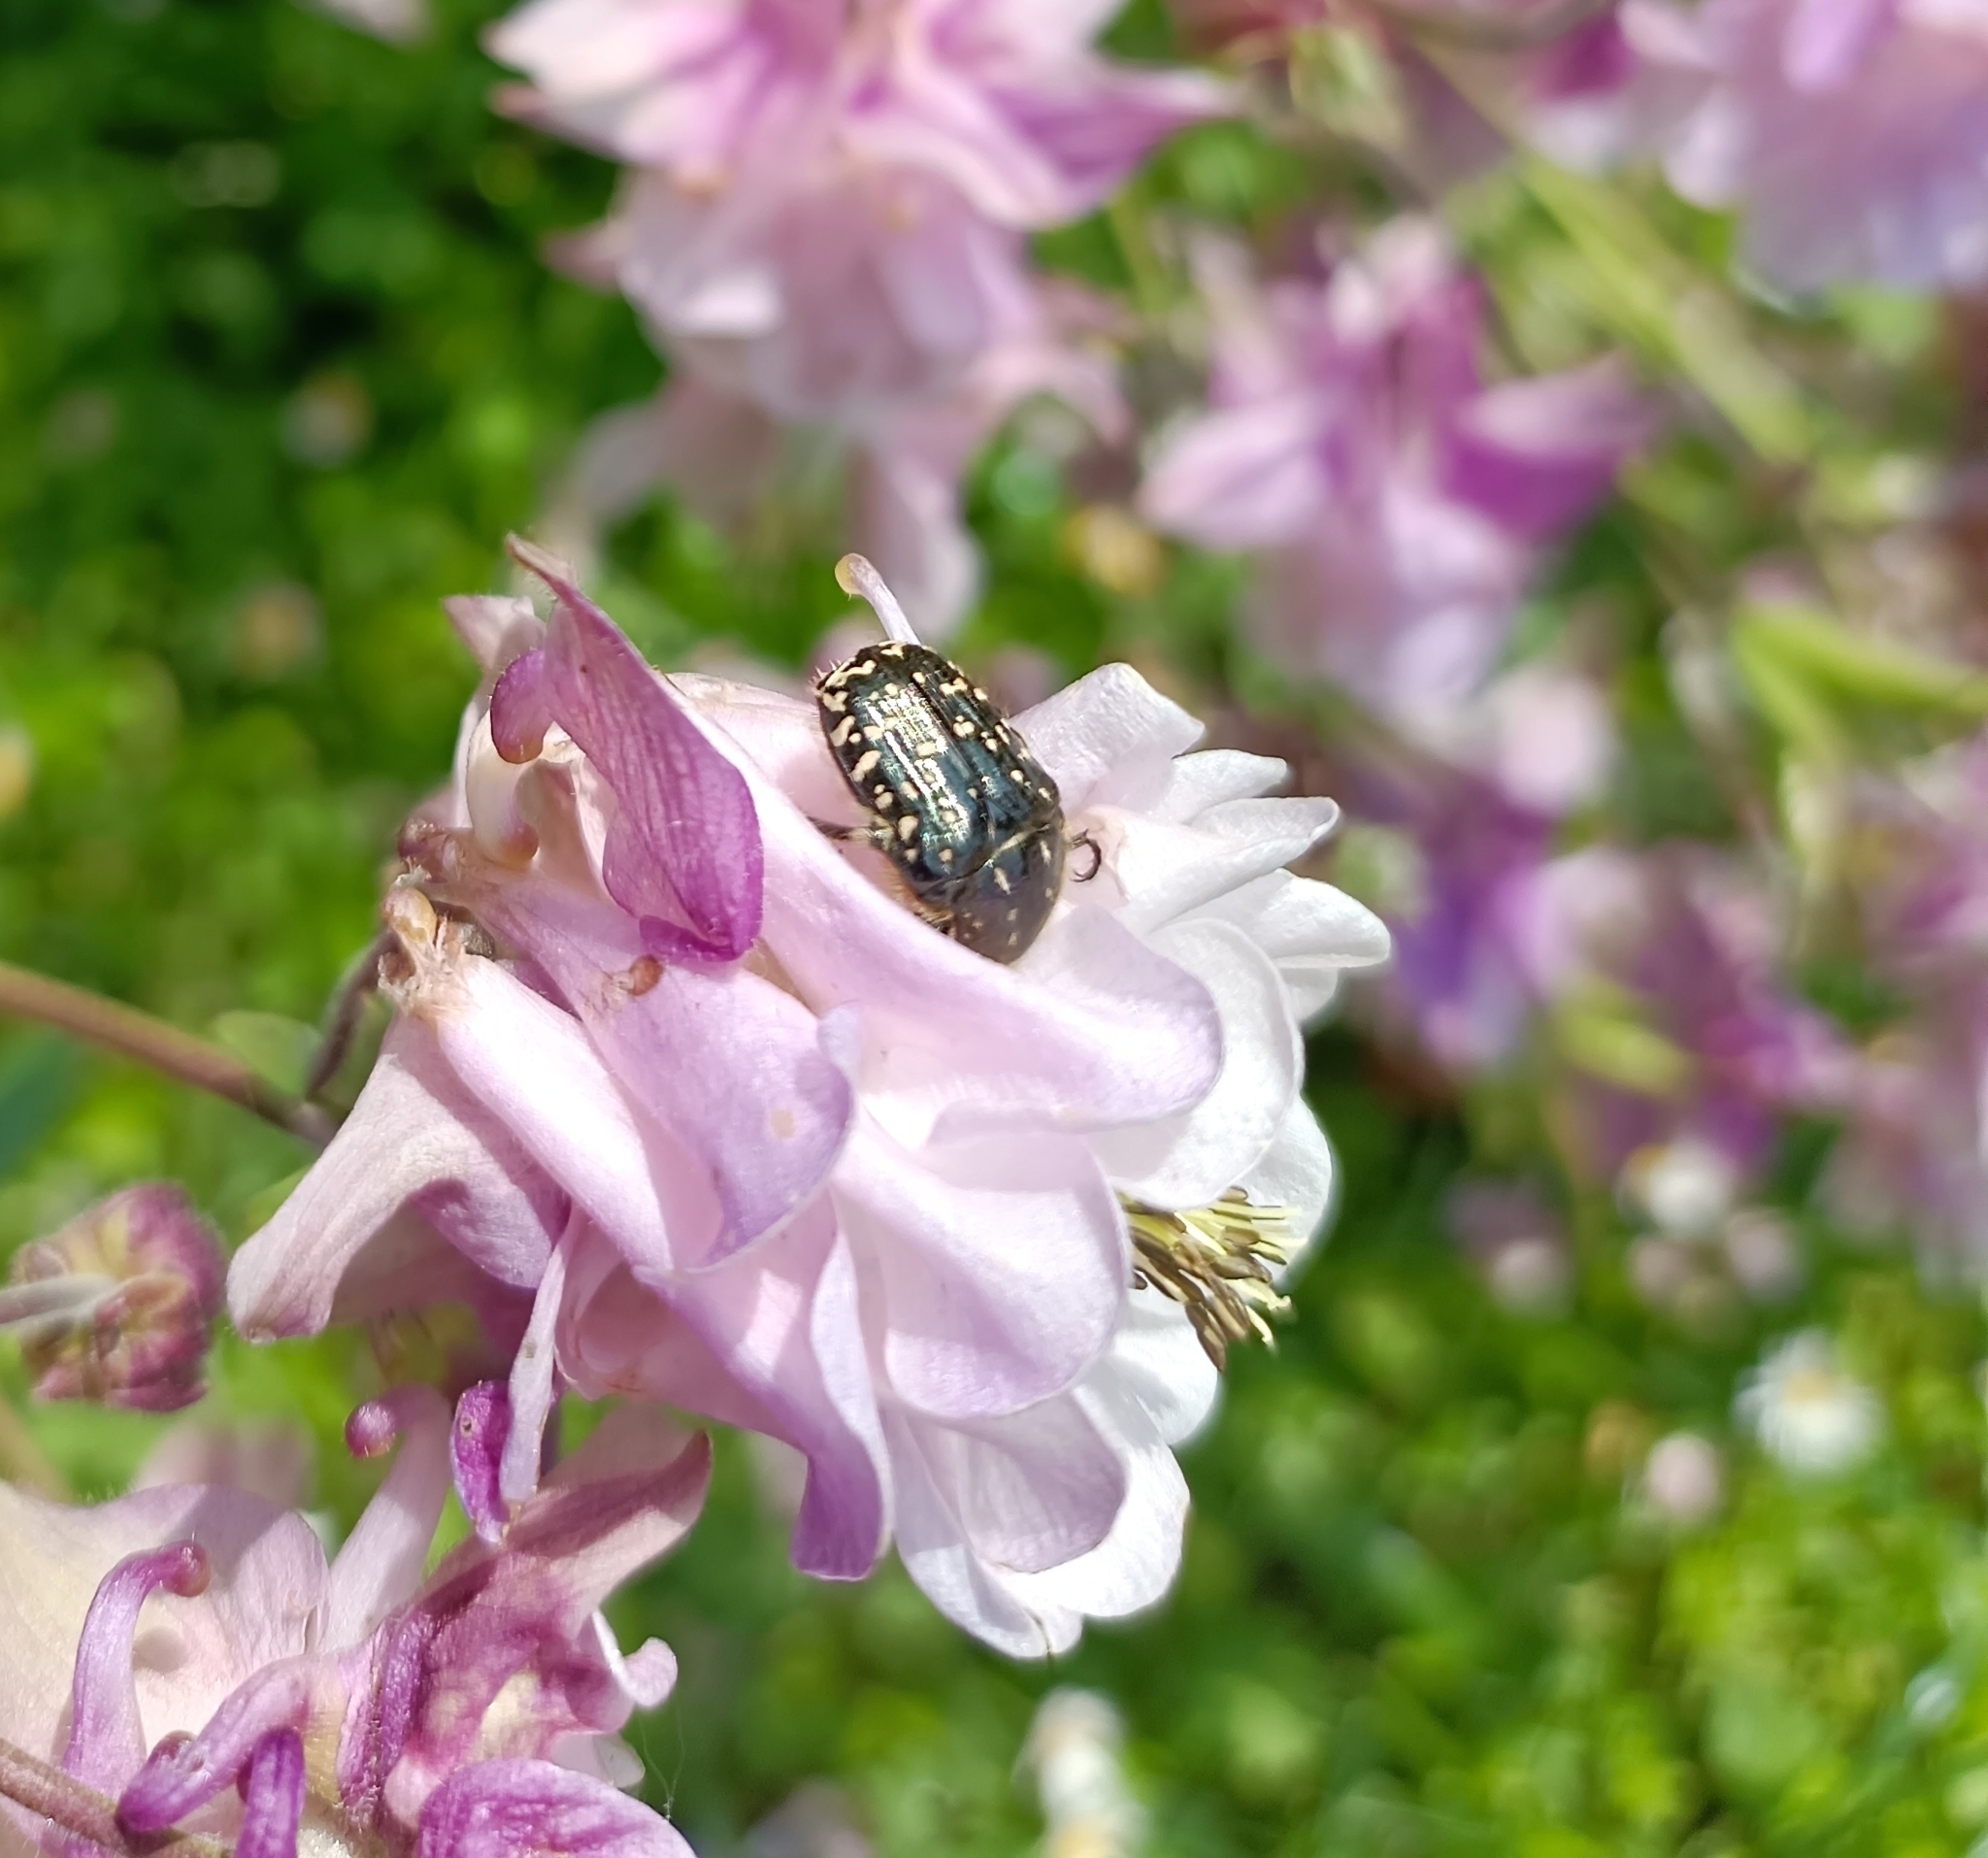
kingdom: Animalia
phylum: Arthropoda
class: Insecta
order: Coleoptera
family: Scarabaeidae
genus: Oxythyrea
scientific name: Oxythyrea funesta
